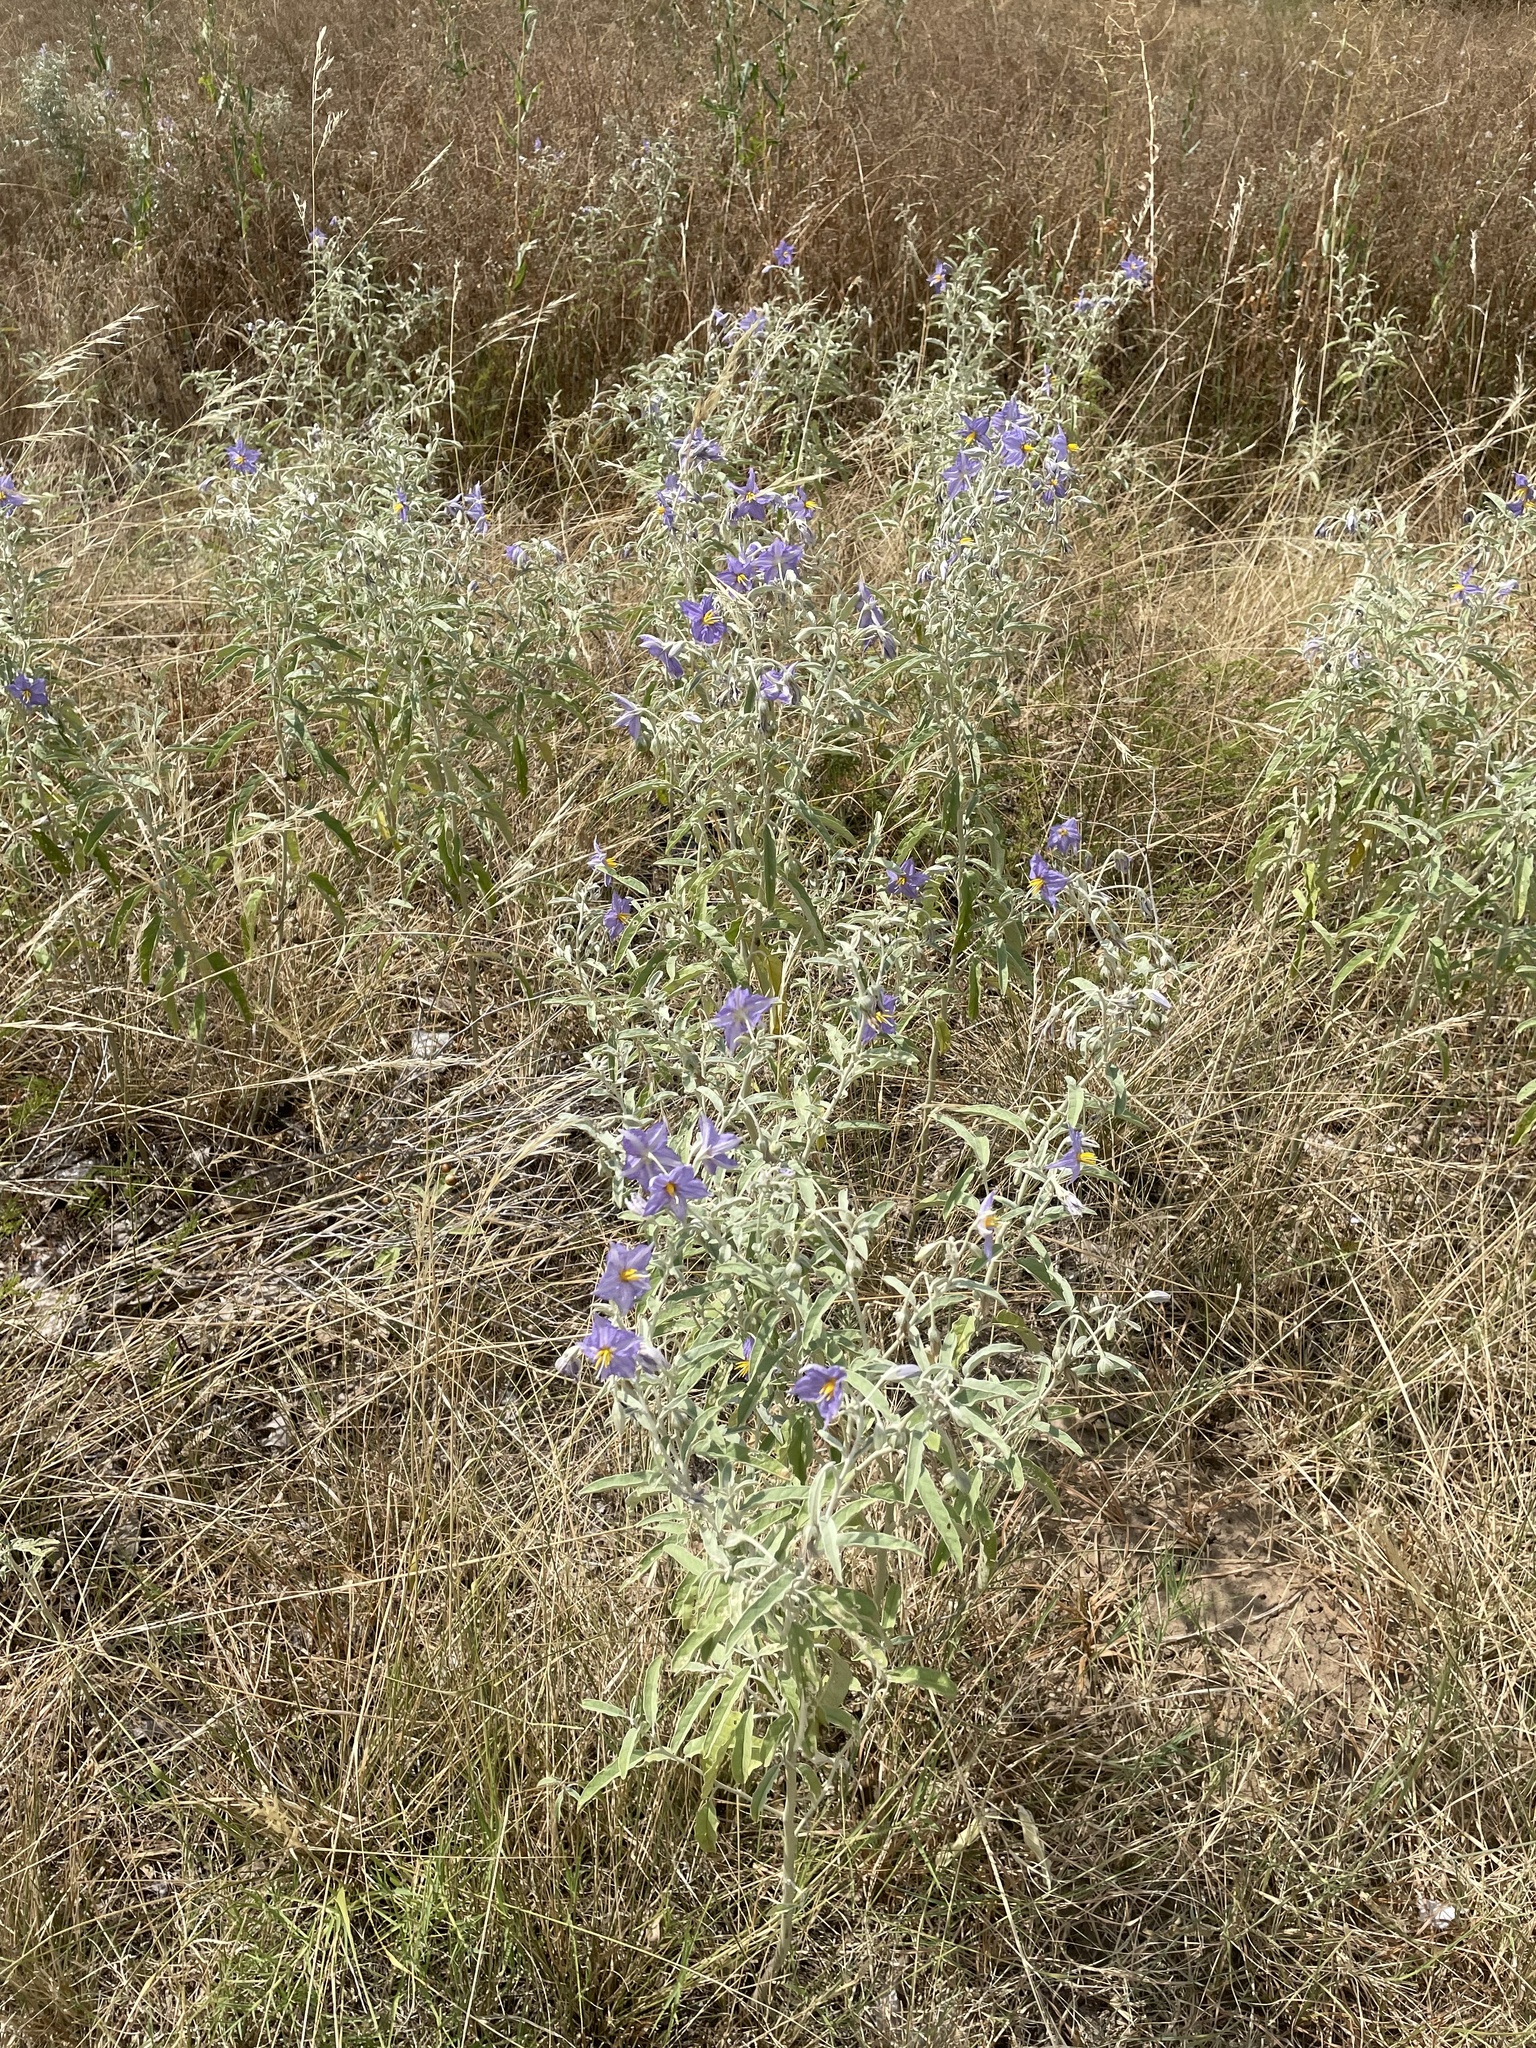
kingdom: Plantae
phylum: Tracheophyta
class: Magnoliopsida
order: Solanales
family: Solanaceae
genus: Solanum
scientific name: Solanum elaeagnifolium
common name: Silverleaf nightshade
